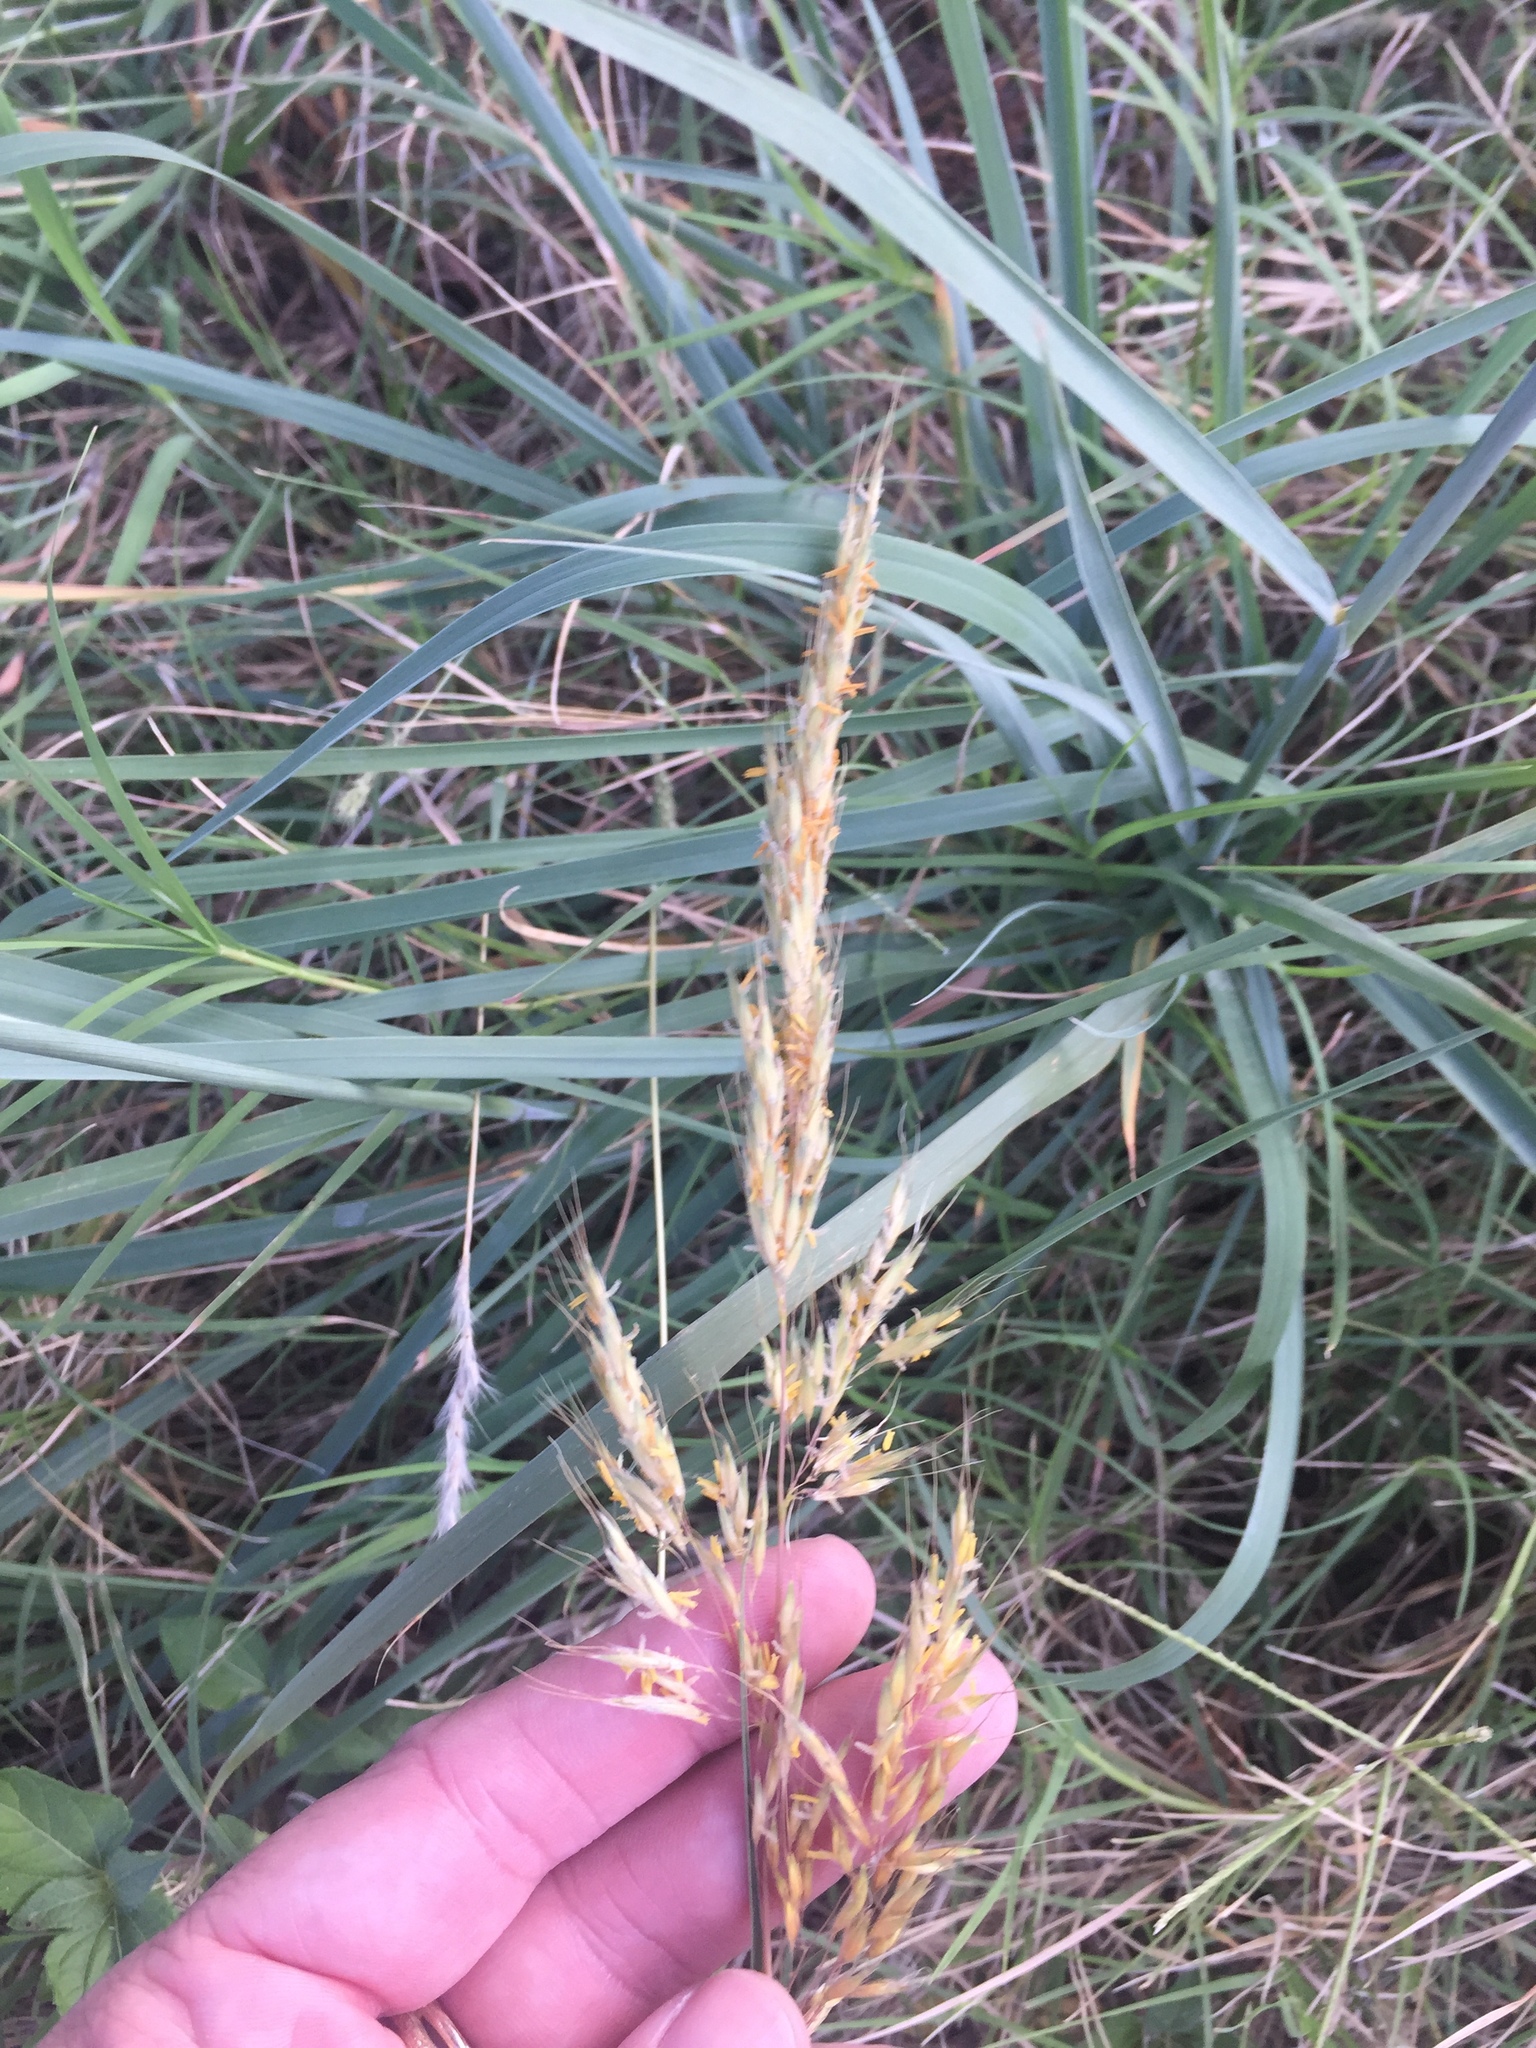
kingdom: Plantae
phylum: Tracheophyta
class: Liliopsida
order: Poales
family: Poaceae
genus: Sorghastrum
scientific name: Sorghastrum nutans
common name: Indian grass
